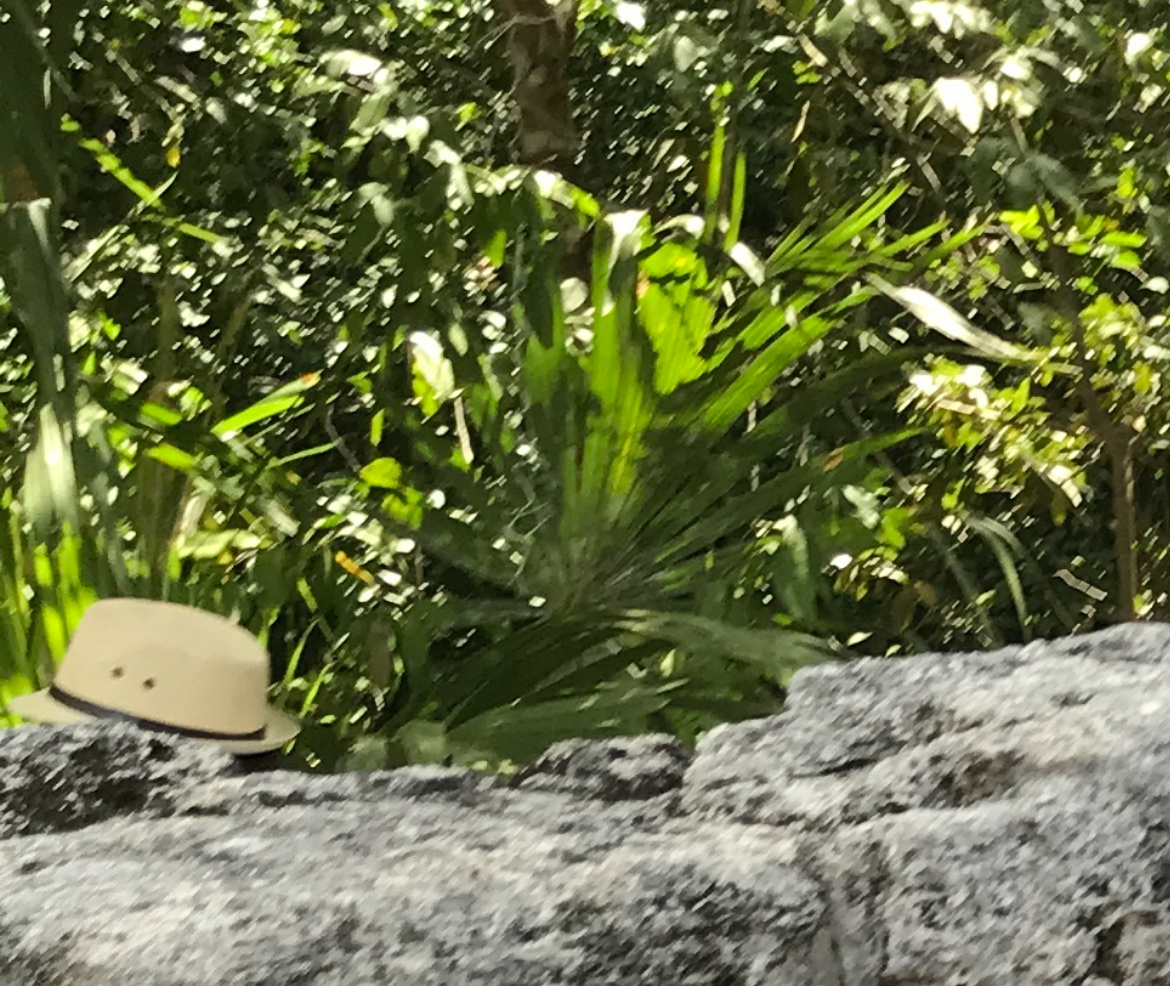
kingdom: Plantae
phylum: Tracheophyta
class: Liliopsida
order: Arecales
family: Arecaceae
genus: Sabal
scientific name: Sabal yapa
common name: Thatch palm
